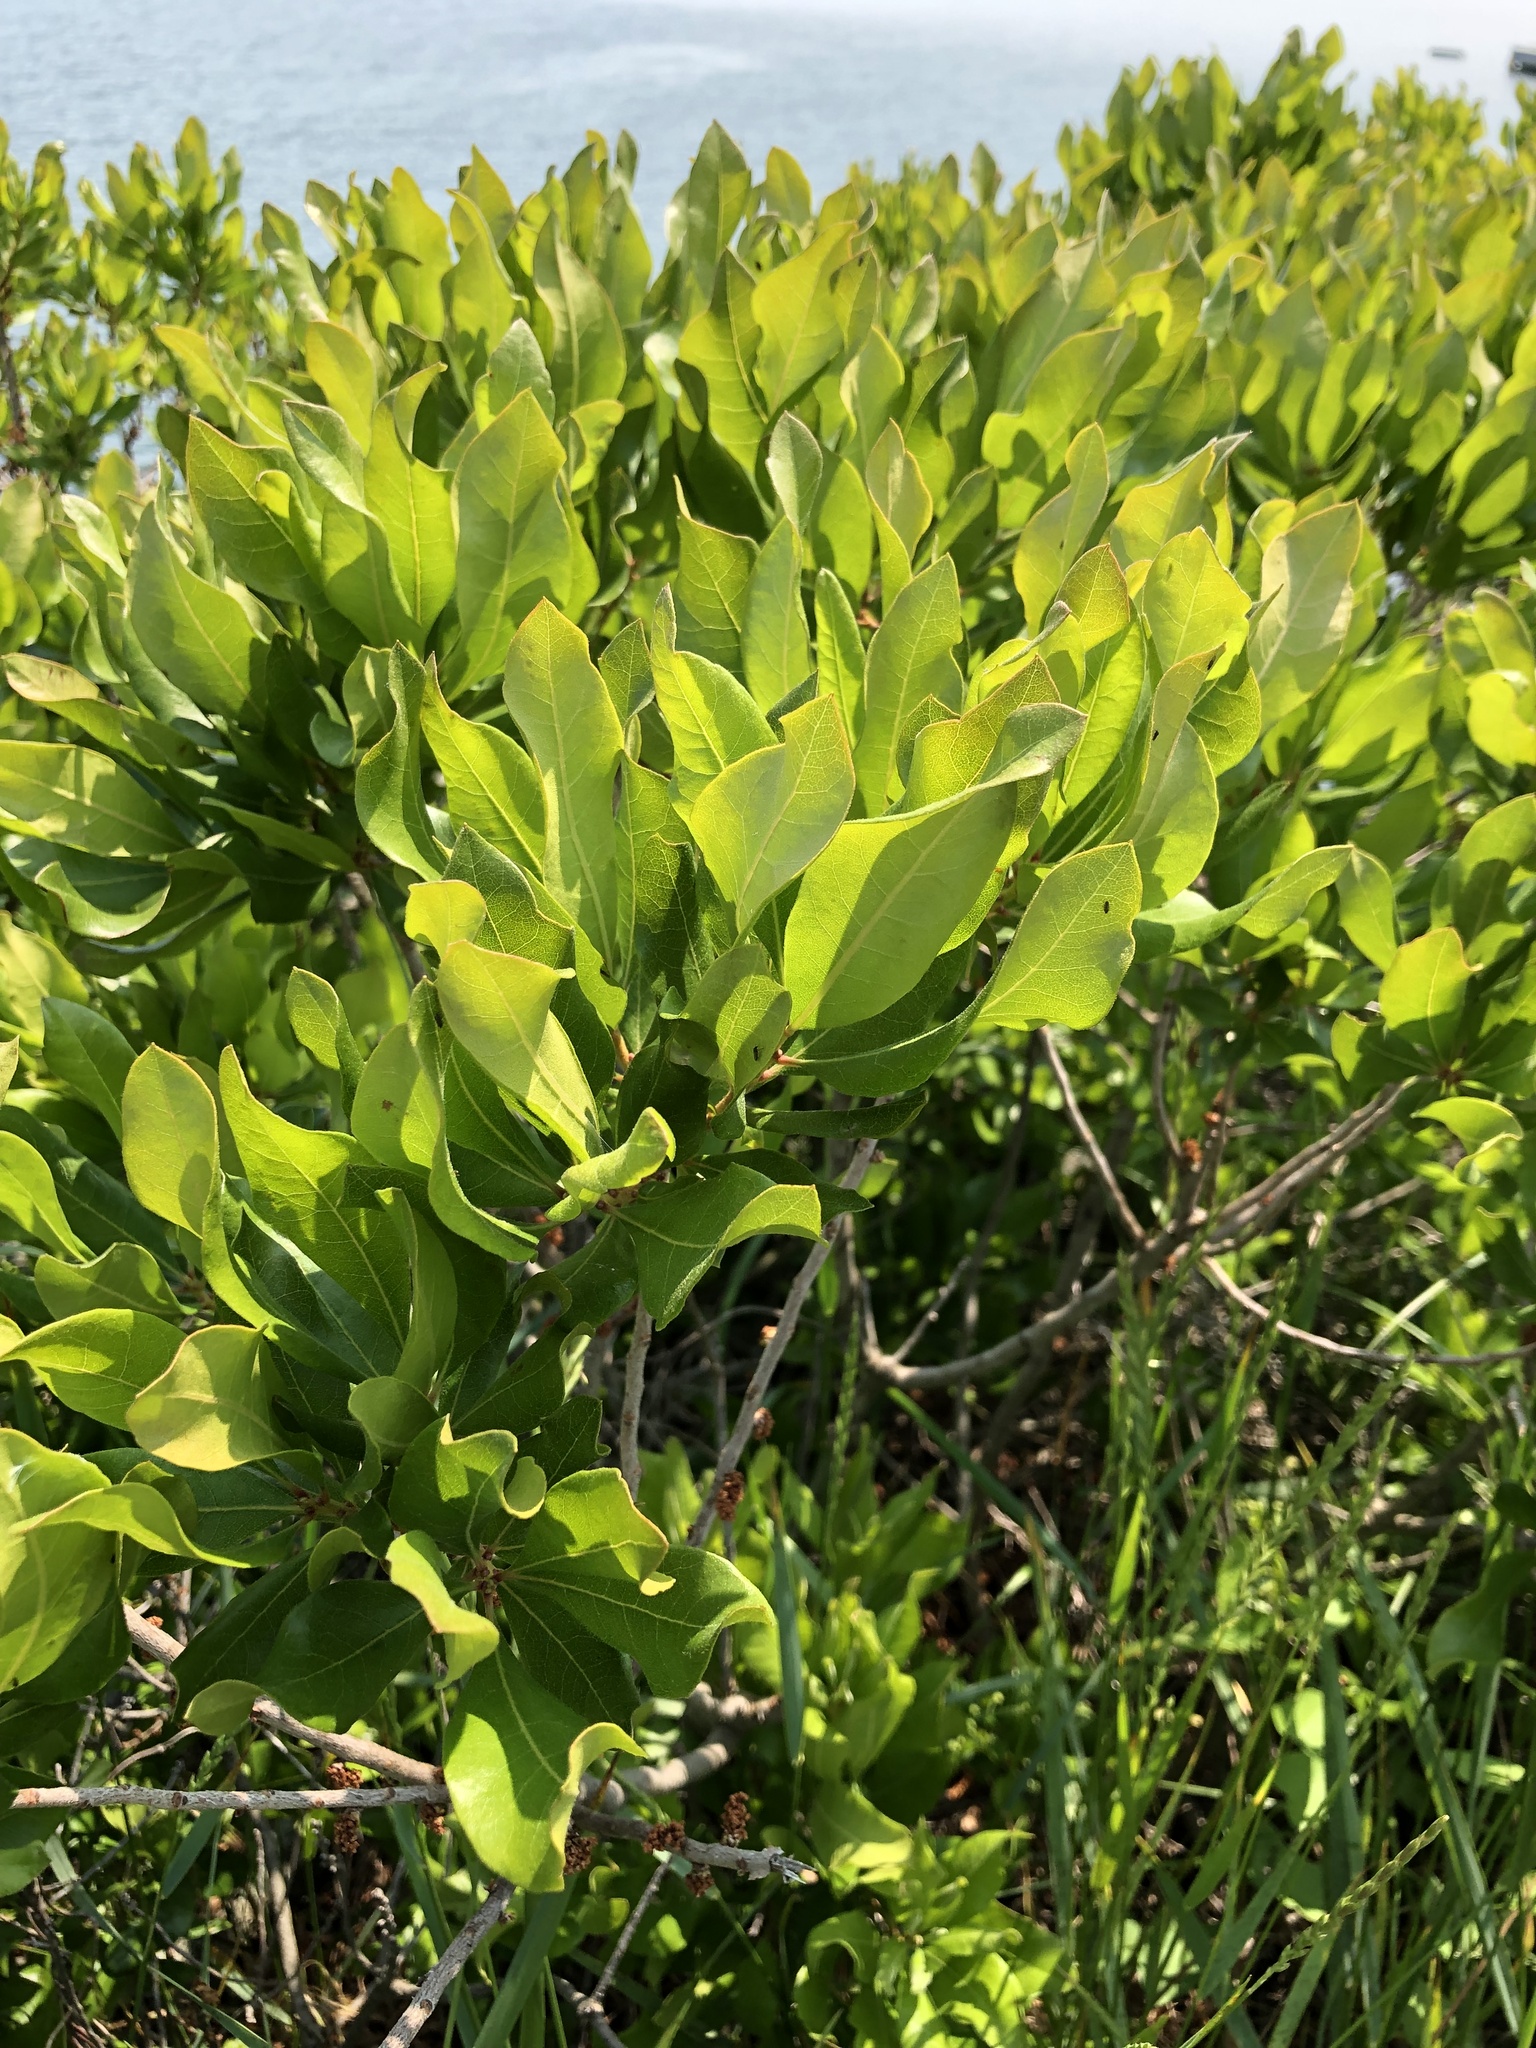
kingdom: Plantae
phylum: Tracheophyta
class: Magnoliopsida
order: Fagales
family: Myricaceae
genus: Morella
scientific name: Morella pensylvanica
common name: Northern bayberry
